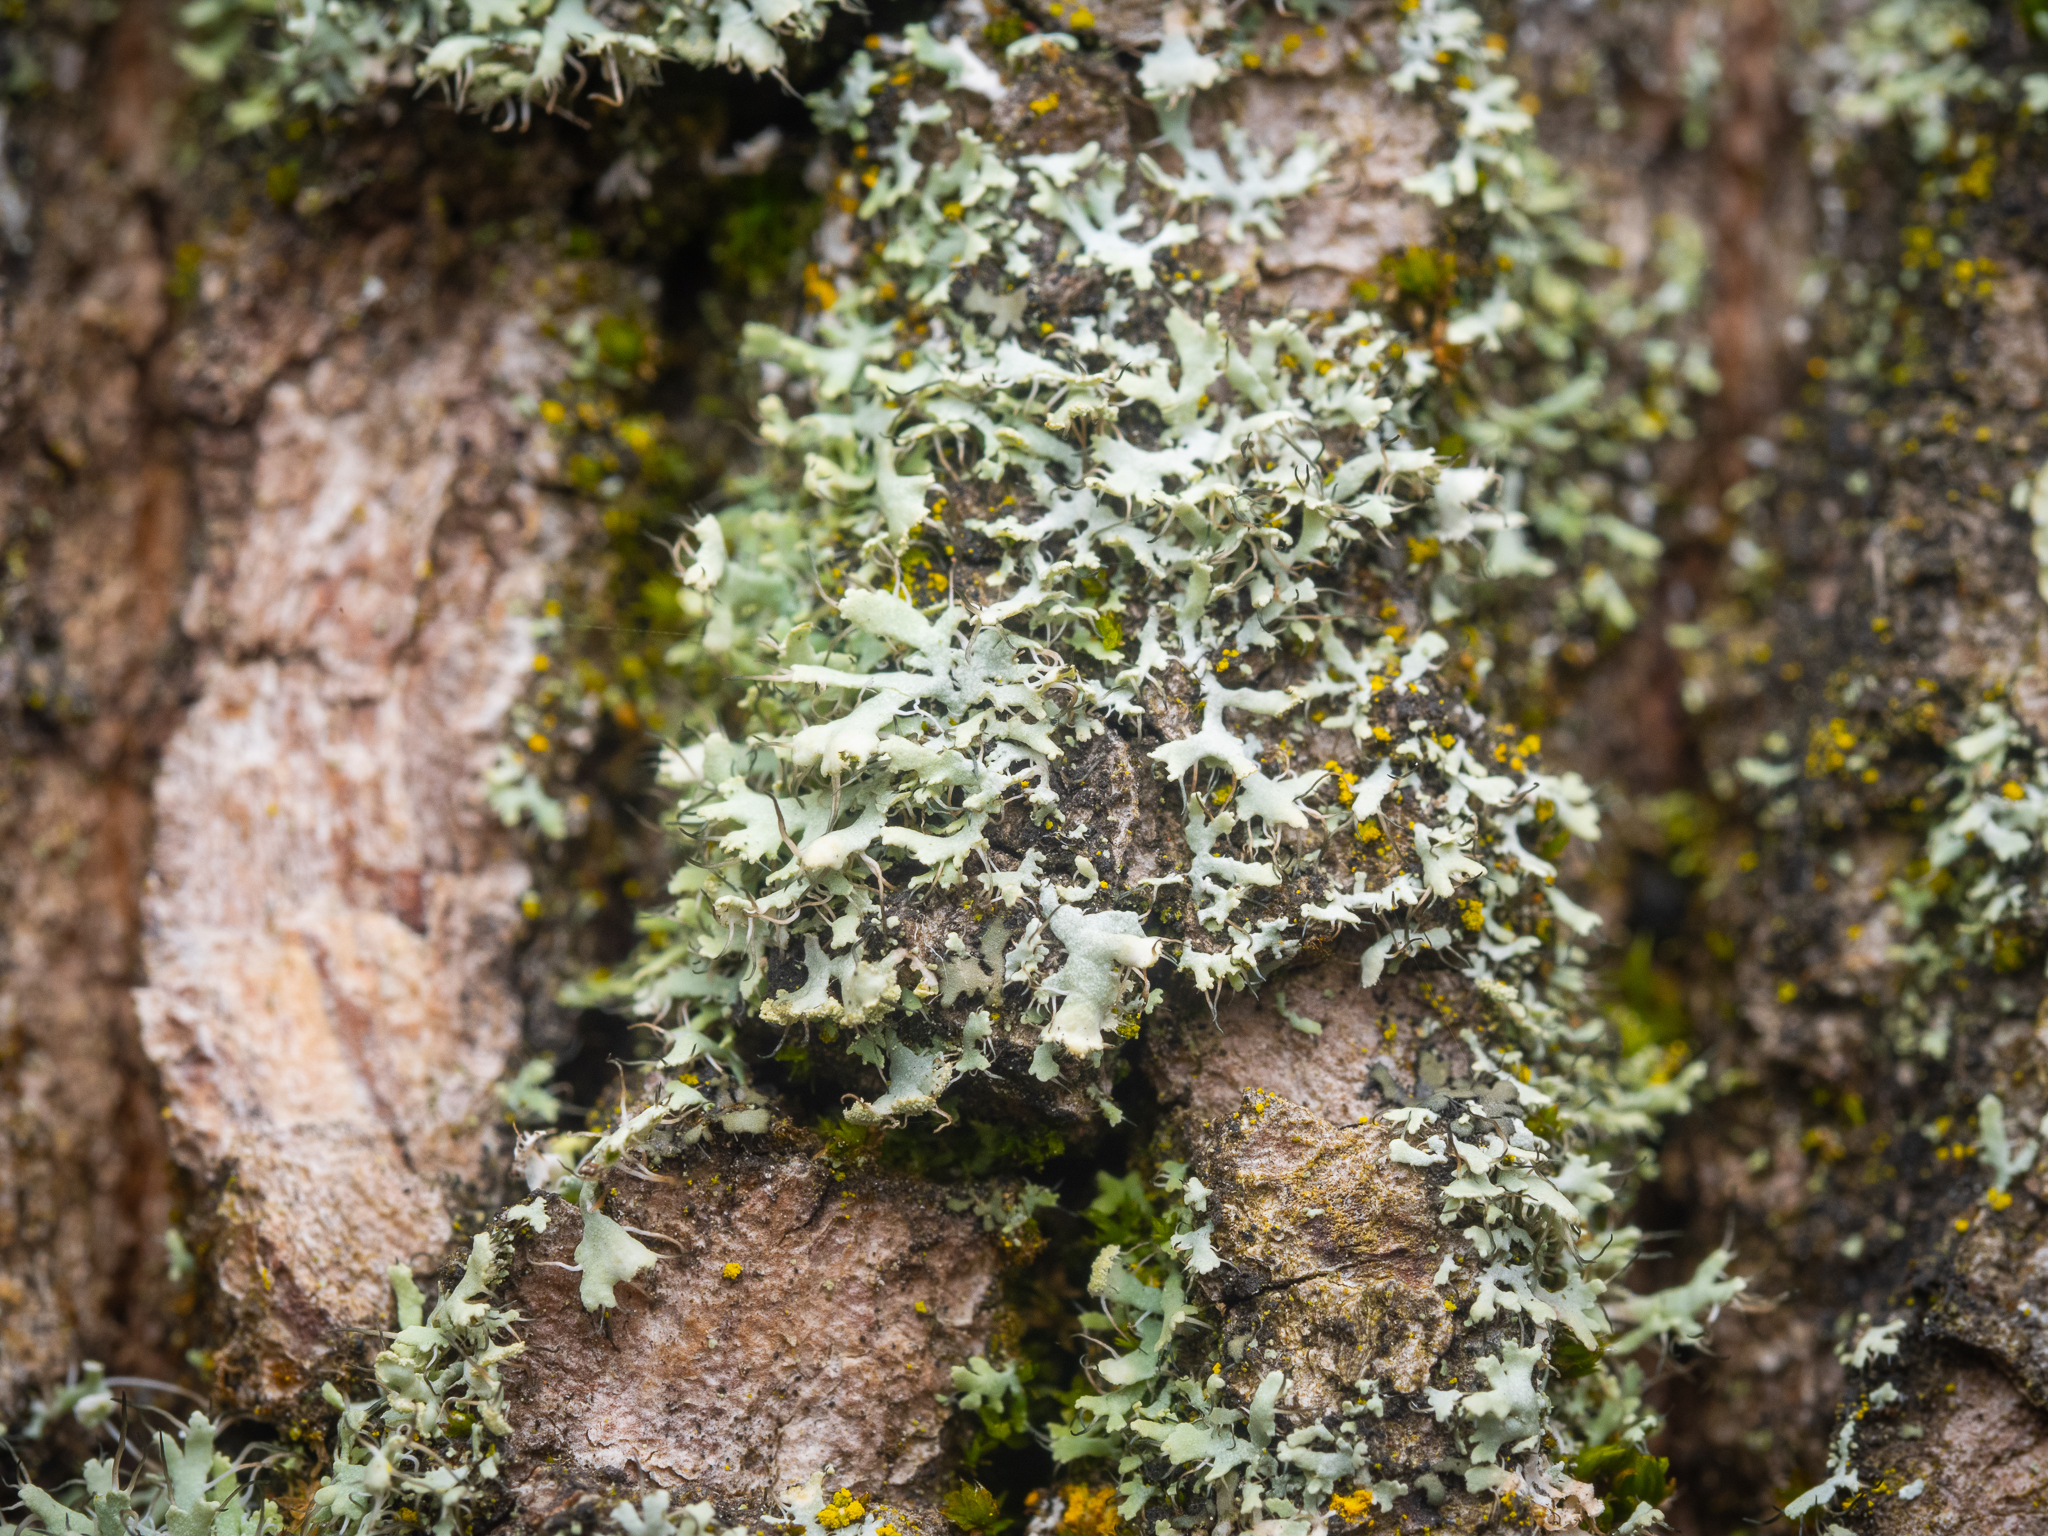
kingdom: Fungi
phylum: Ascomycota
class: Lecanoromycetes
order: Caliciales
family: Physciaceae
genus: Physcia
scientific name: Physcia tenella
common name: Fringed rosette lichen
